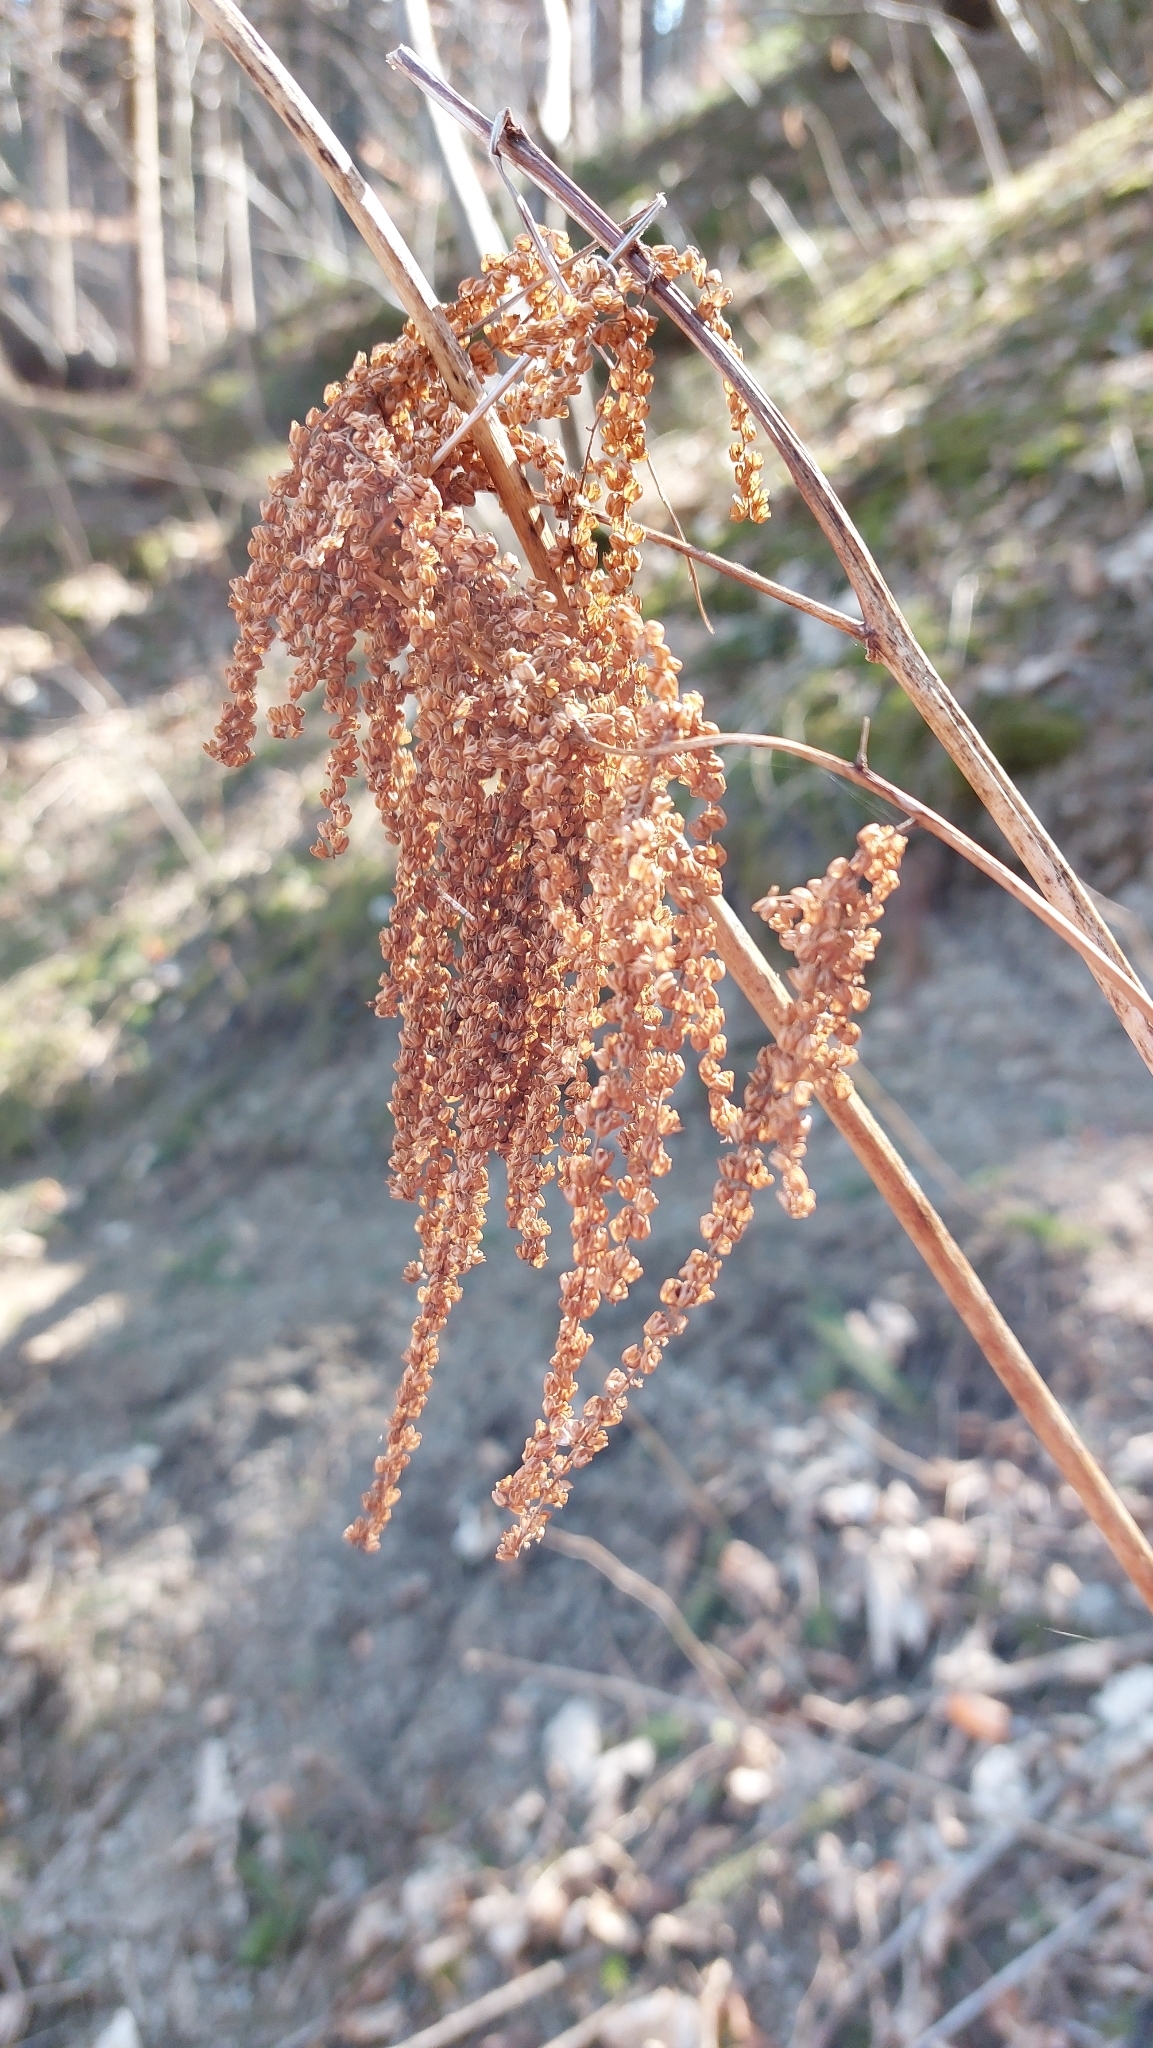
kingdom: Plantae
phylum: Tracheophyta
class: Magnoliopsida
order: Rosales
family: Rosaceae
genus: Aruncus
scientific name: Aruncus dioicus
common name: Buck's-beard
